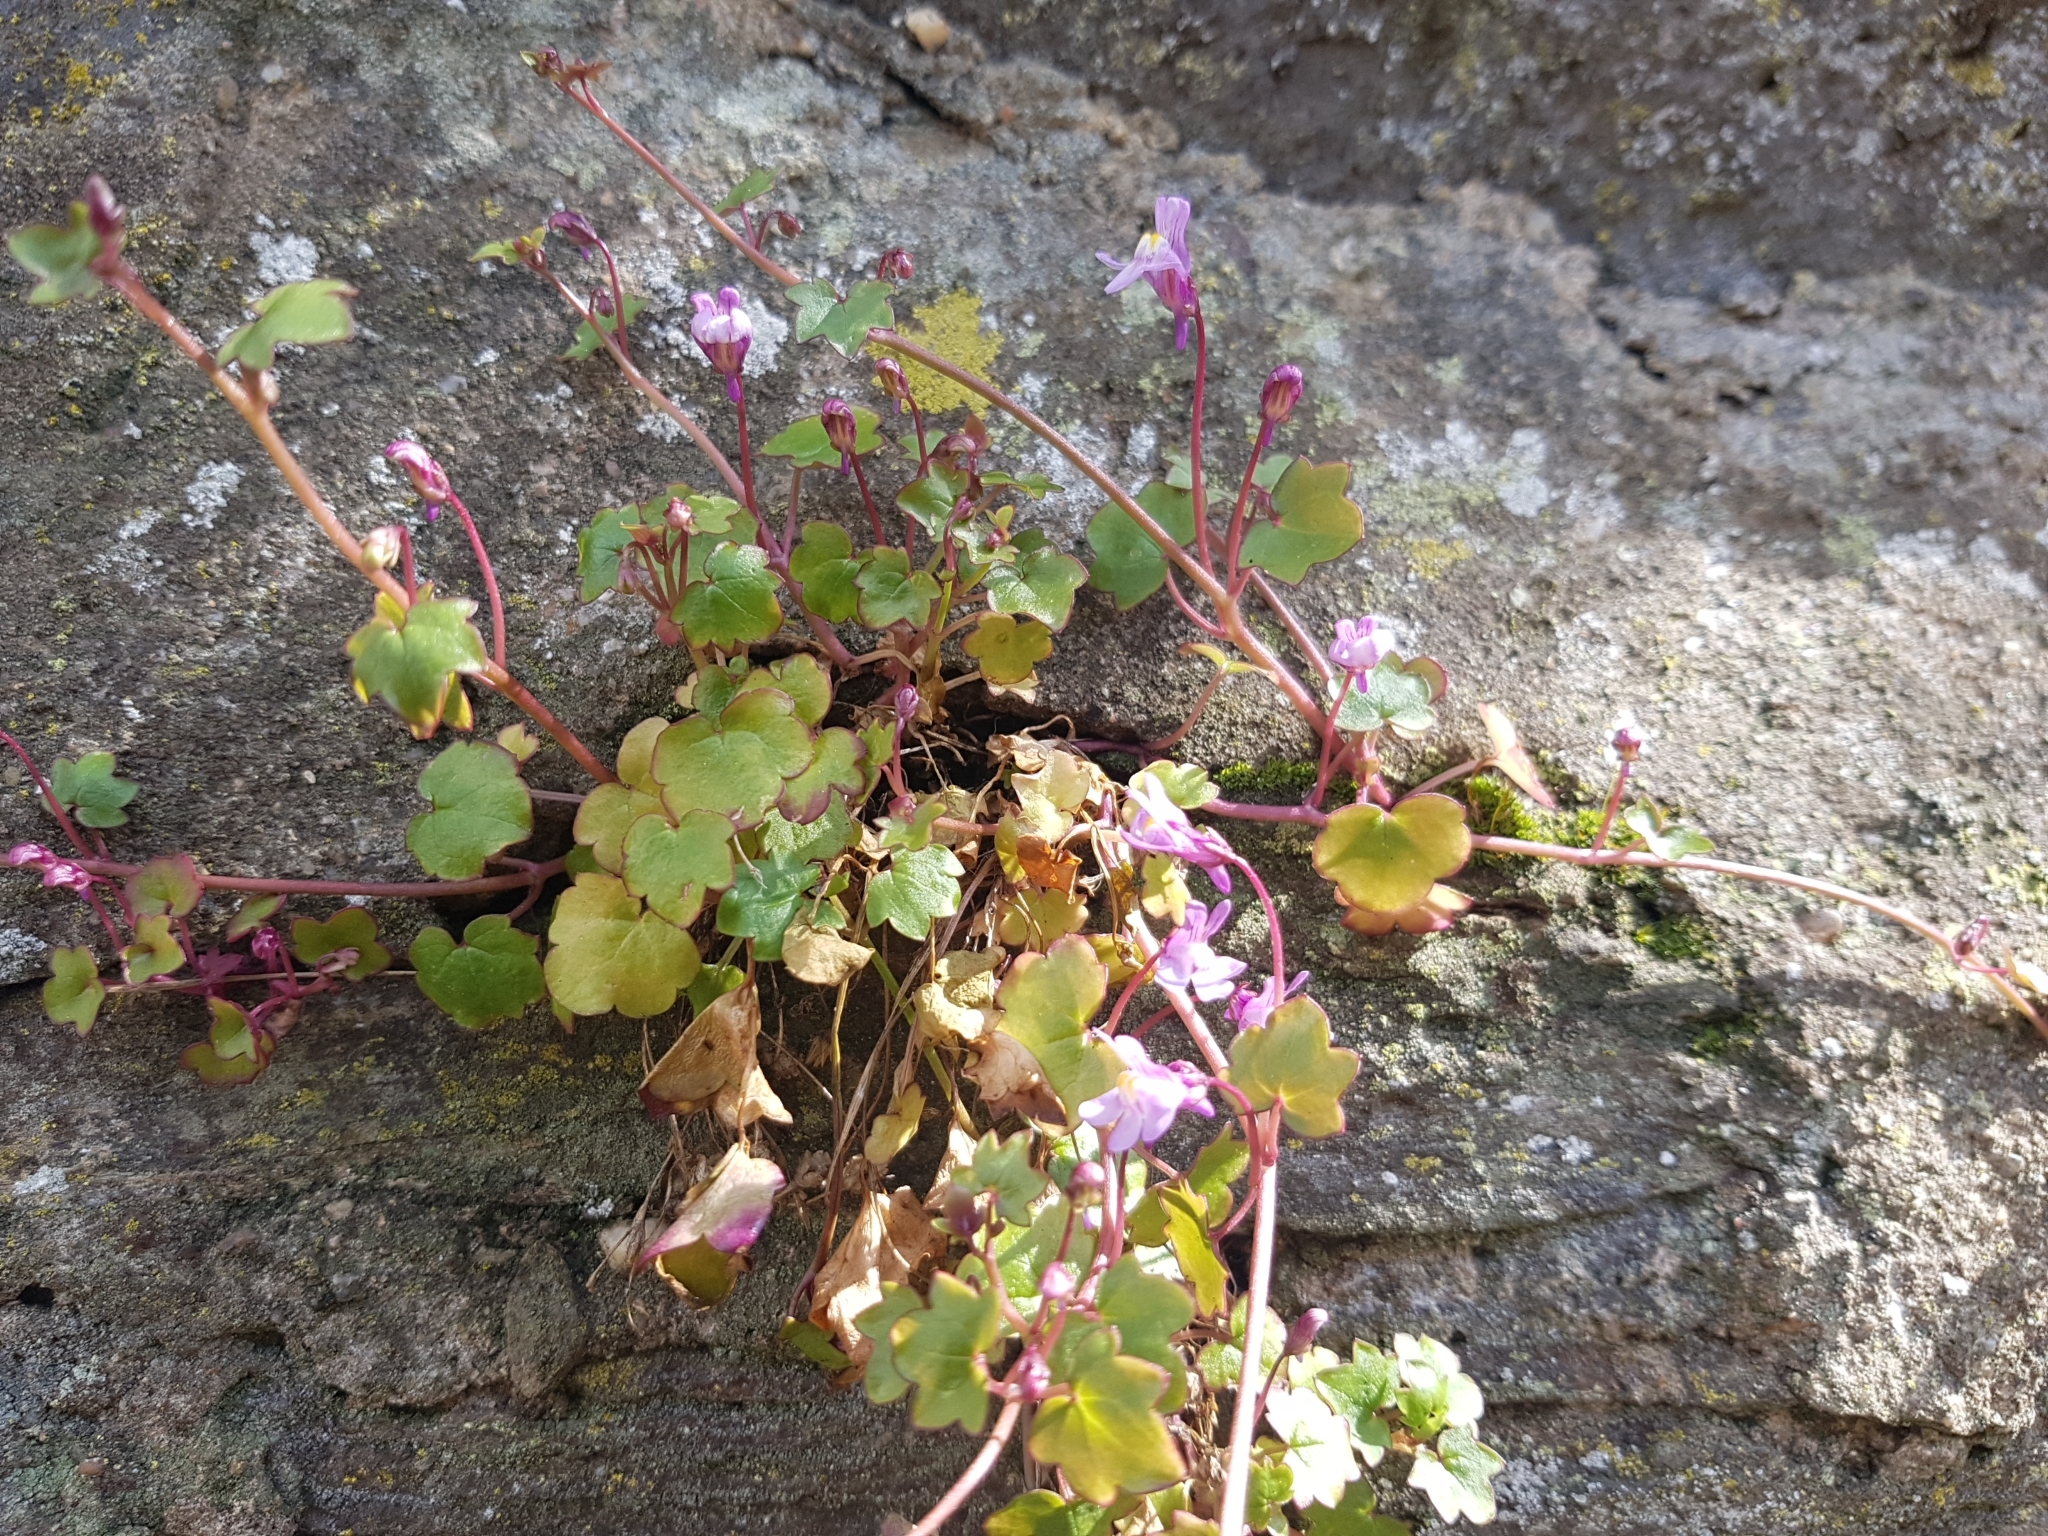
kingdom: Plantae
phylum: Tracheophyta
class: Magnoliopsida
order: Lamiales
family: Plantaginaceae
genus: Cymbalaria
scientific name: Cymbalaria muralis
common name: Ivy-leaved toadflax
